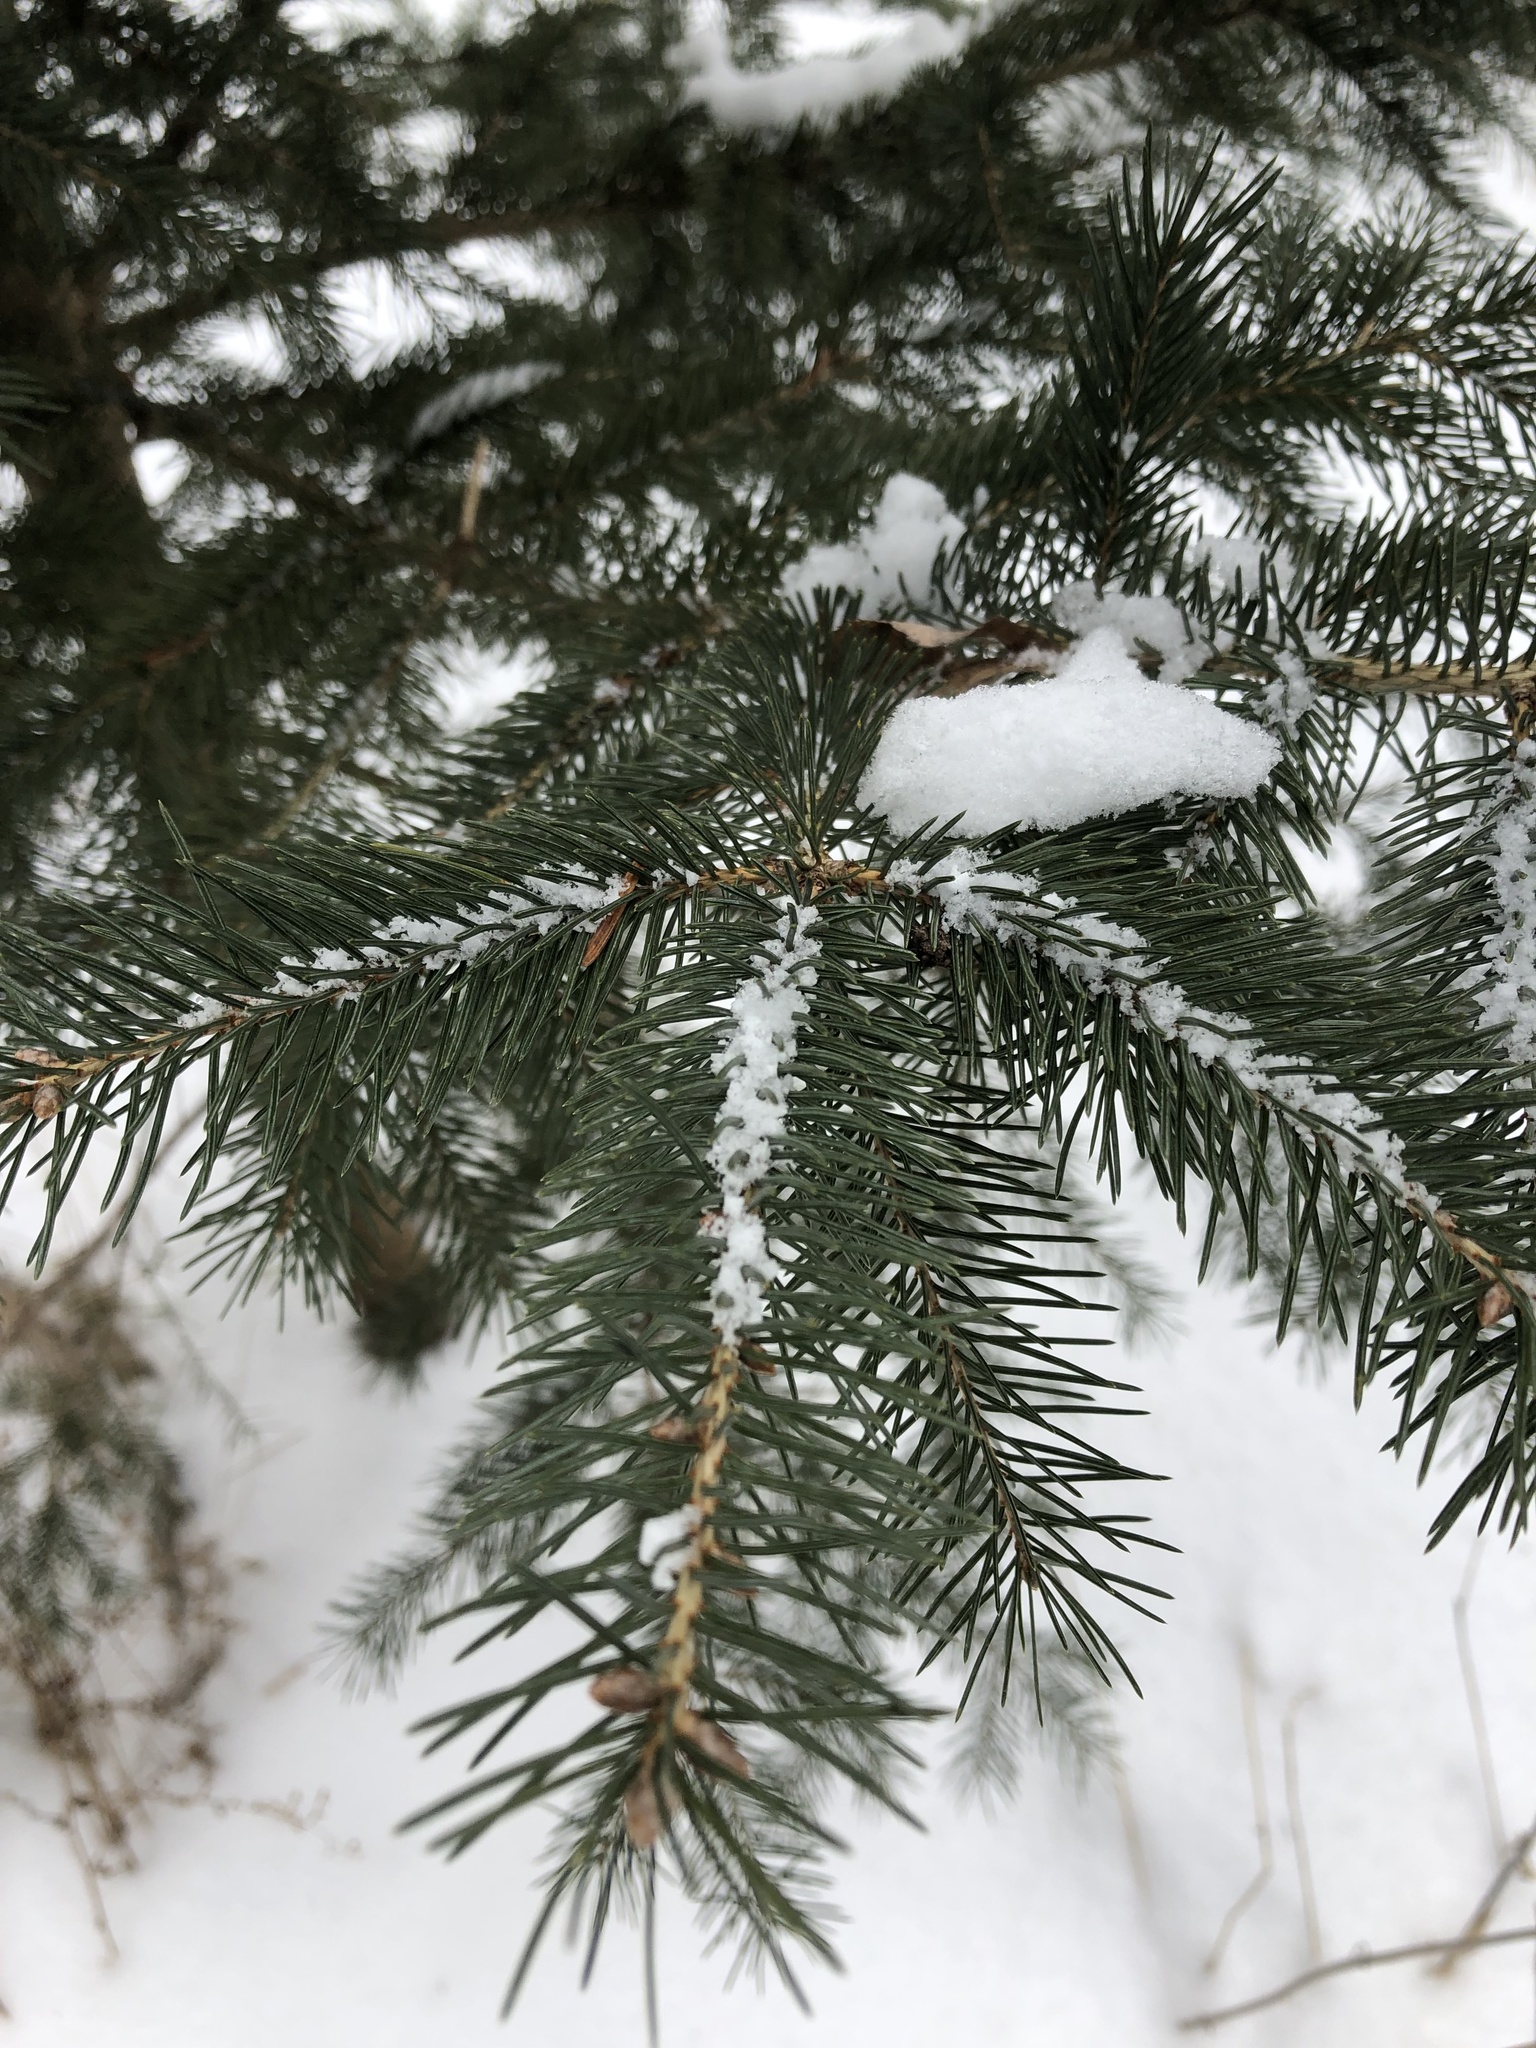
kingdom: Plantae
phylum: Tracheophyta
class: Pinopsida
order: Pinales
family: Pinaceae
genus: Picea
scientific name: Picea glauca
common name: White spruce
